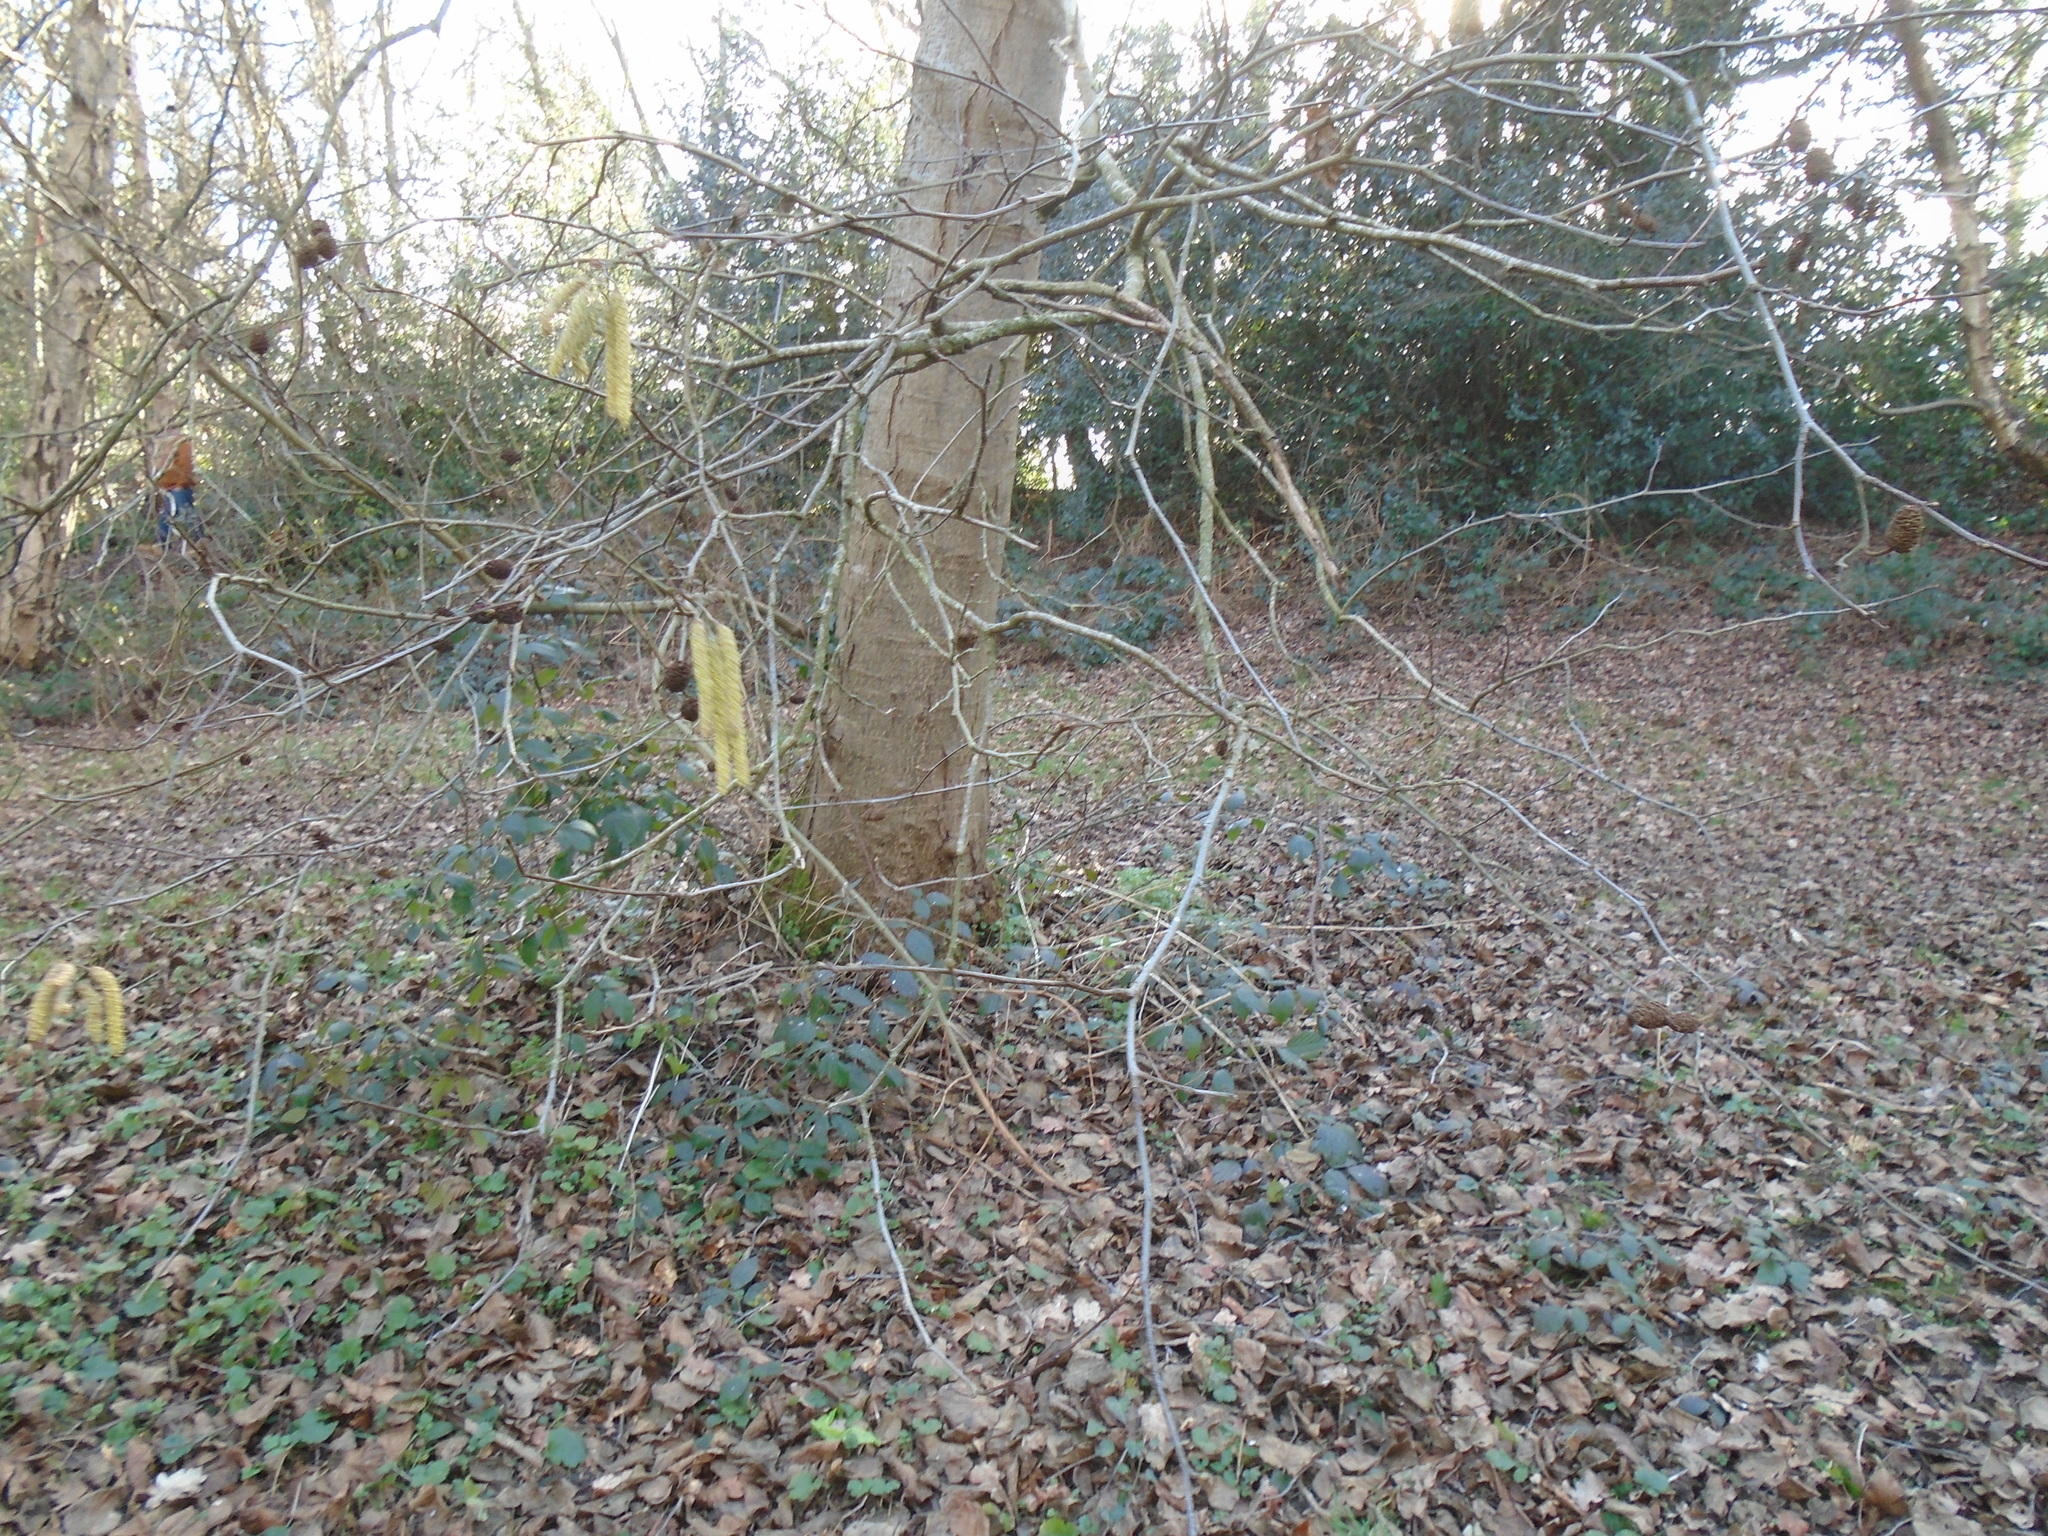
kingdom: Plantae
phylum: Tracheophyta
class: Magnoliopsida
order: Fagales
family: Betulaceae
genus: Alnus
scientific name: Alnus glutinosa
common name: Black alder
